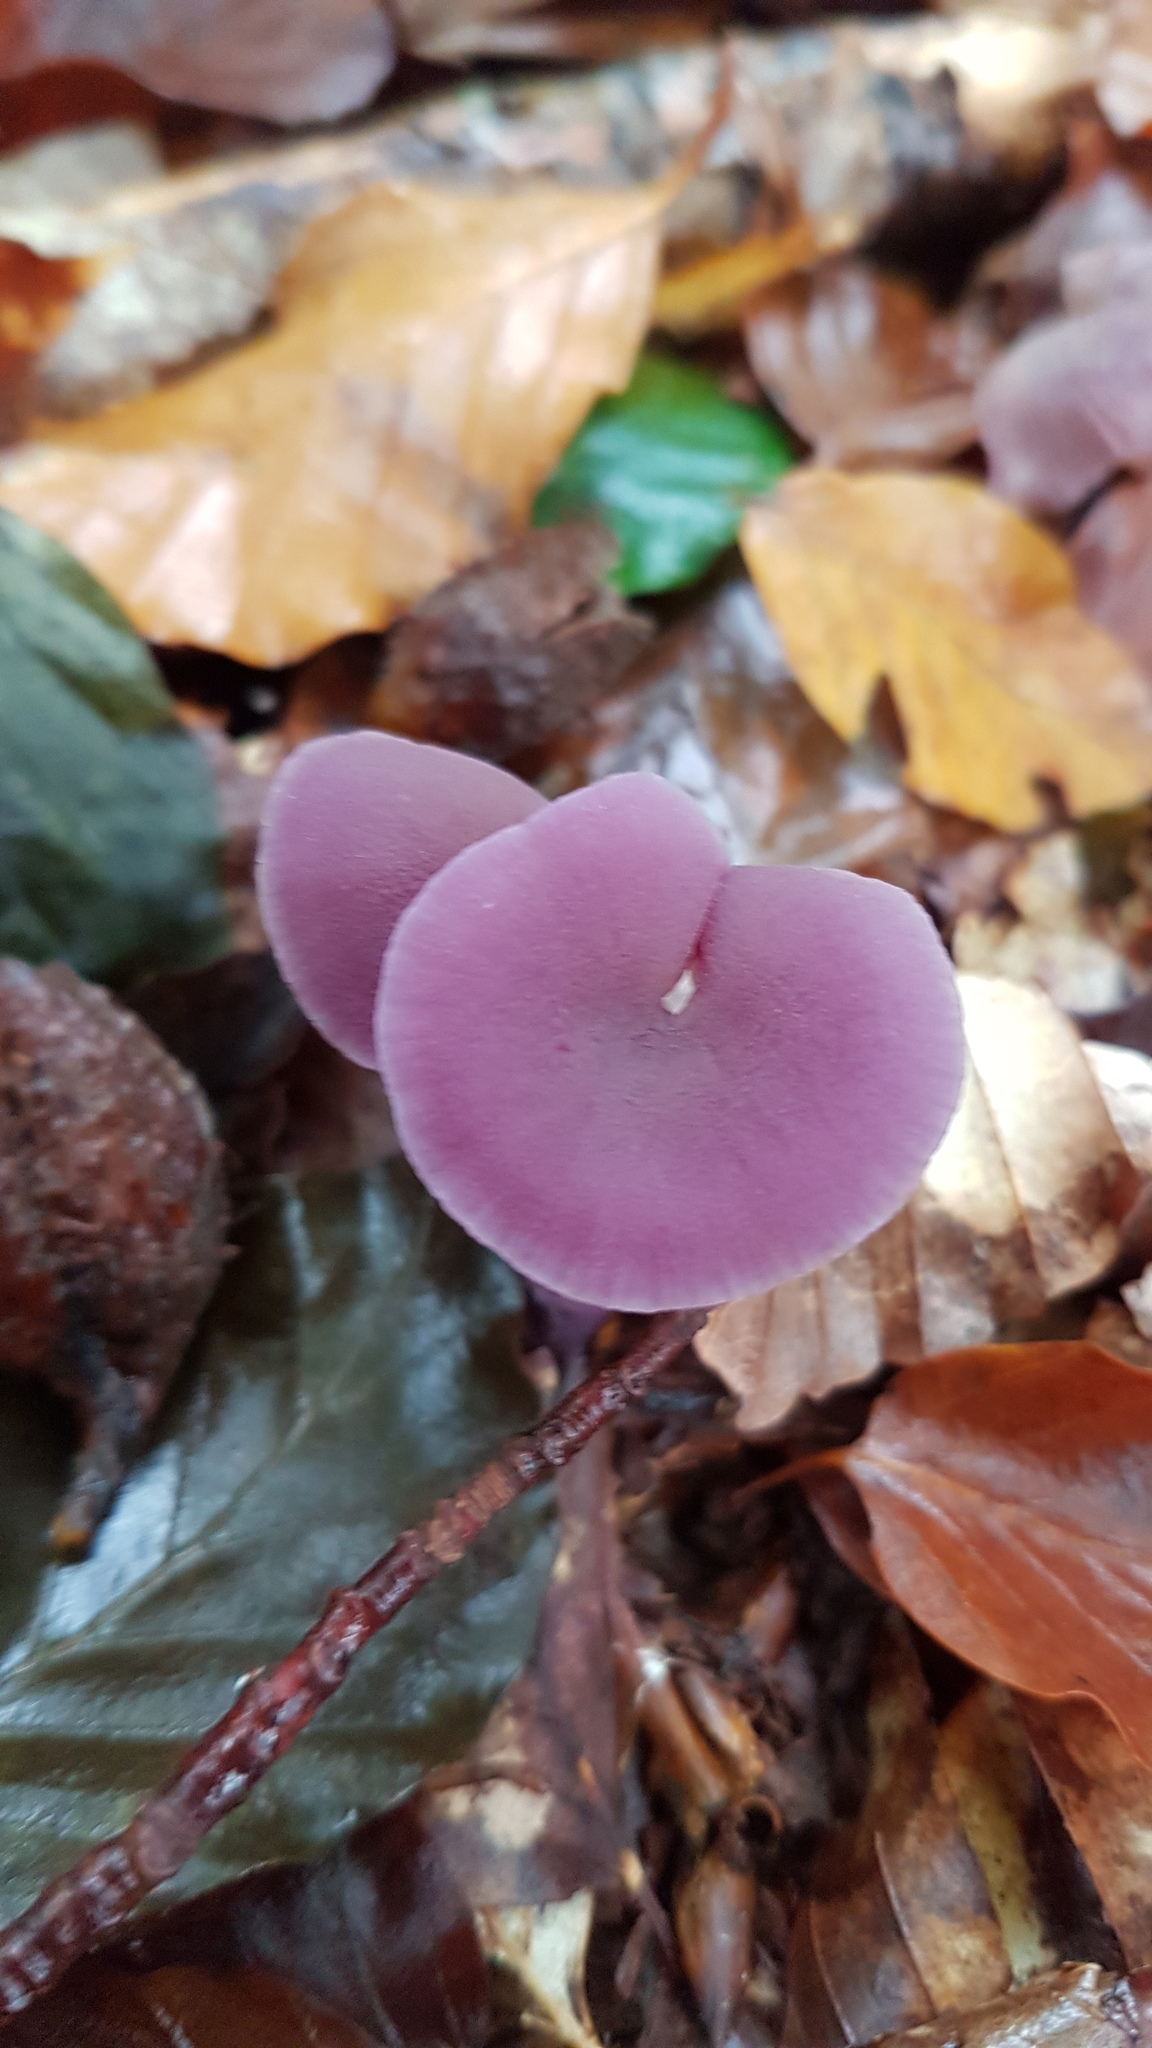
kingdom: Fungi
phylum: Basidiomycota
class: Agaricomycetes
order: Agaricales
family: Hydnangiaceae
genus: Laccaria
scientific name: Laccaria amethystina
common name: Amethyst deceiver
